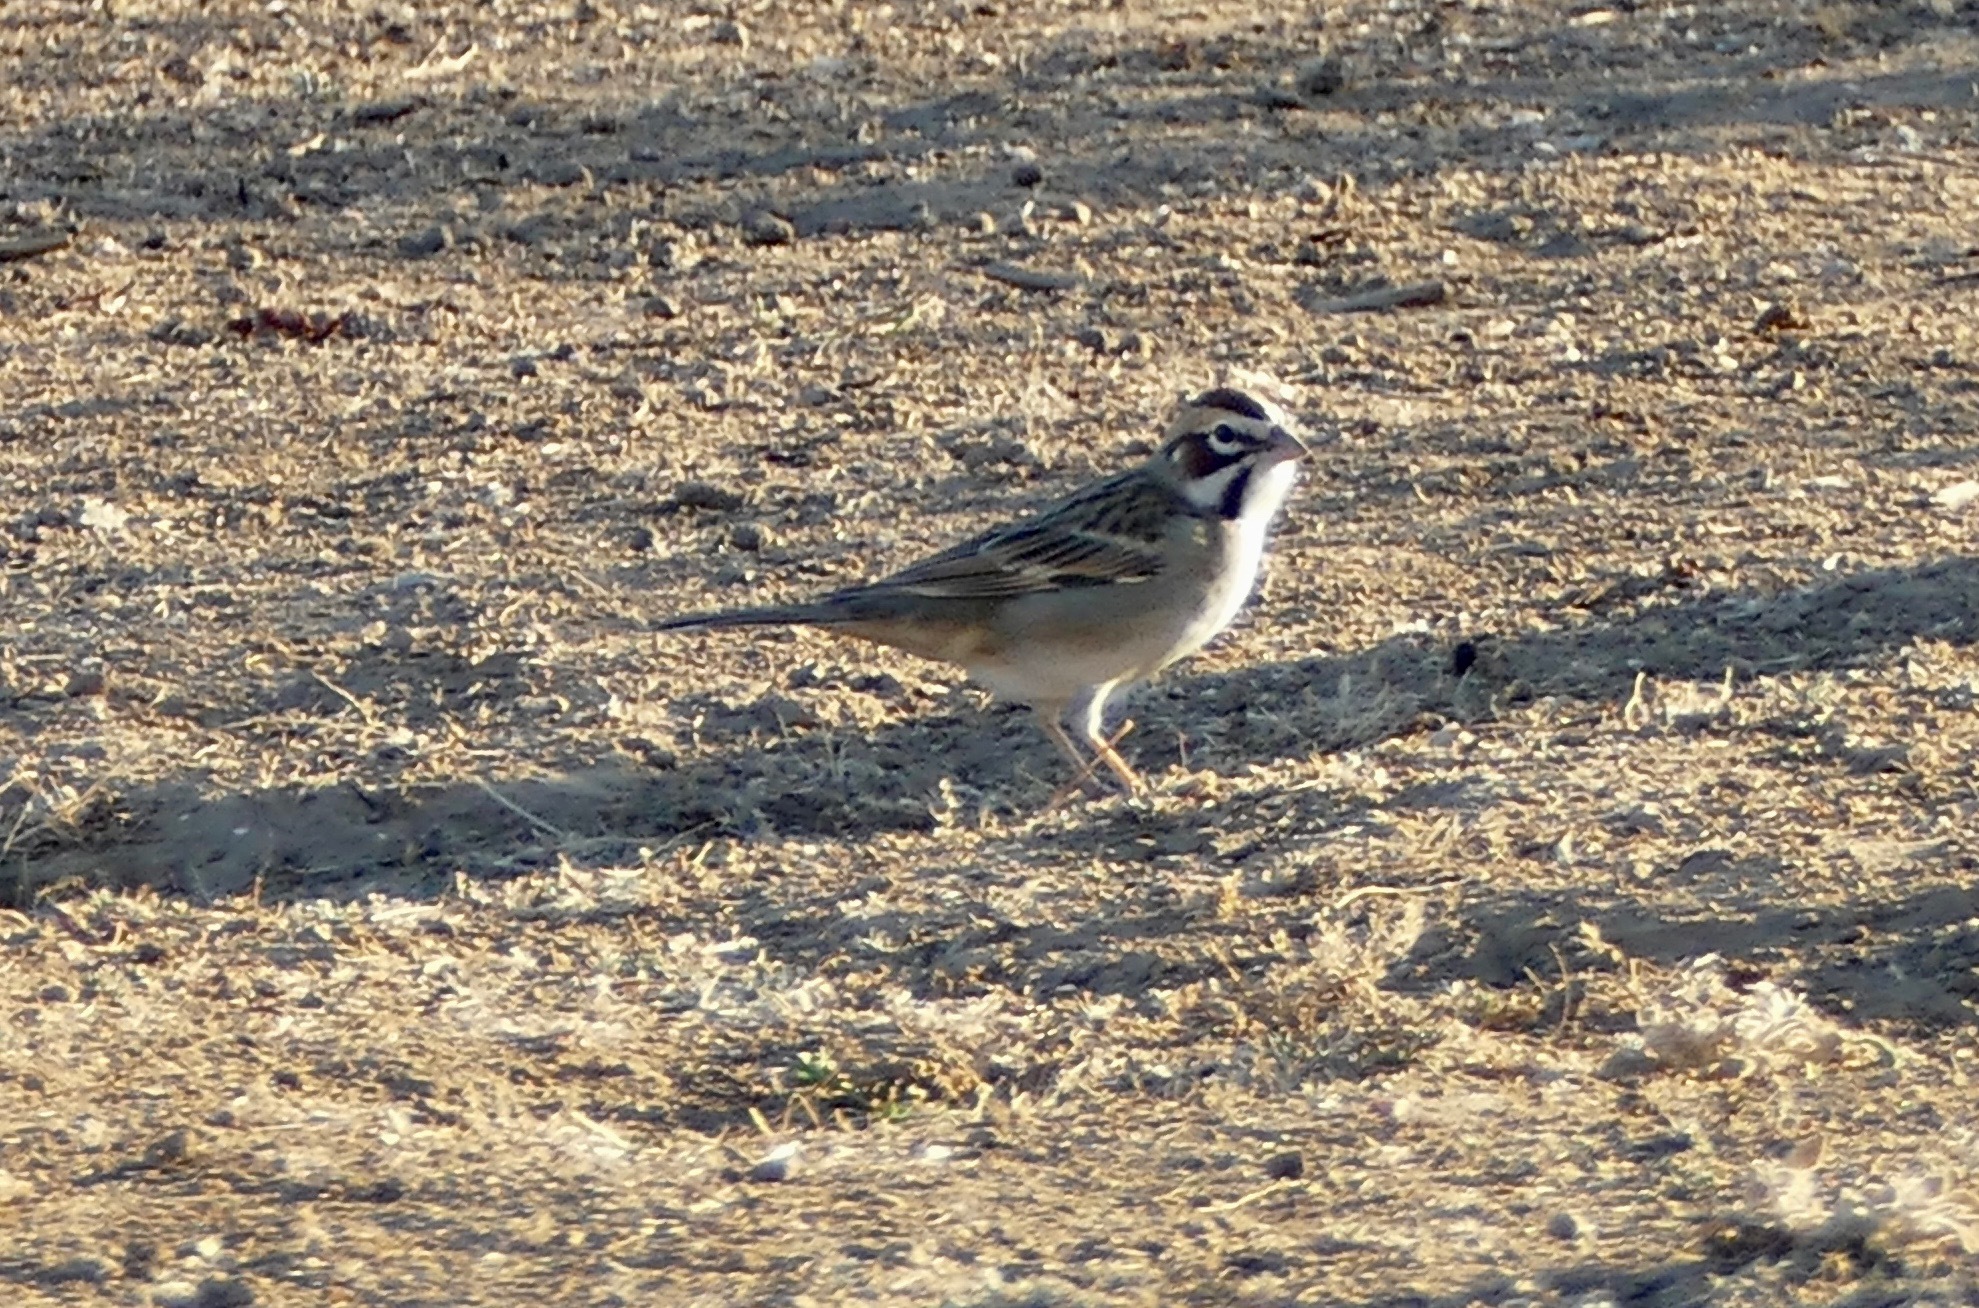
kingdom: Animalia
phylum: Chordata
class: Aves
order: Passeriformes
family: Passerellidae
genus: Chondestes
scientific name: Chondestes grammacus
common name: Lark sparrow
